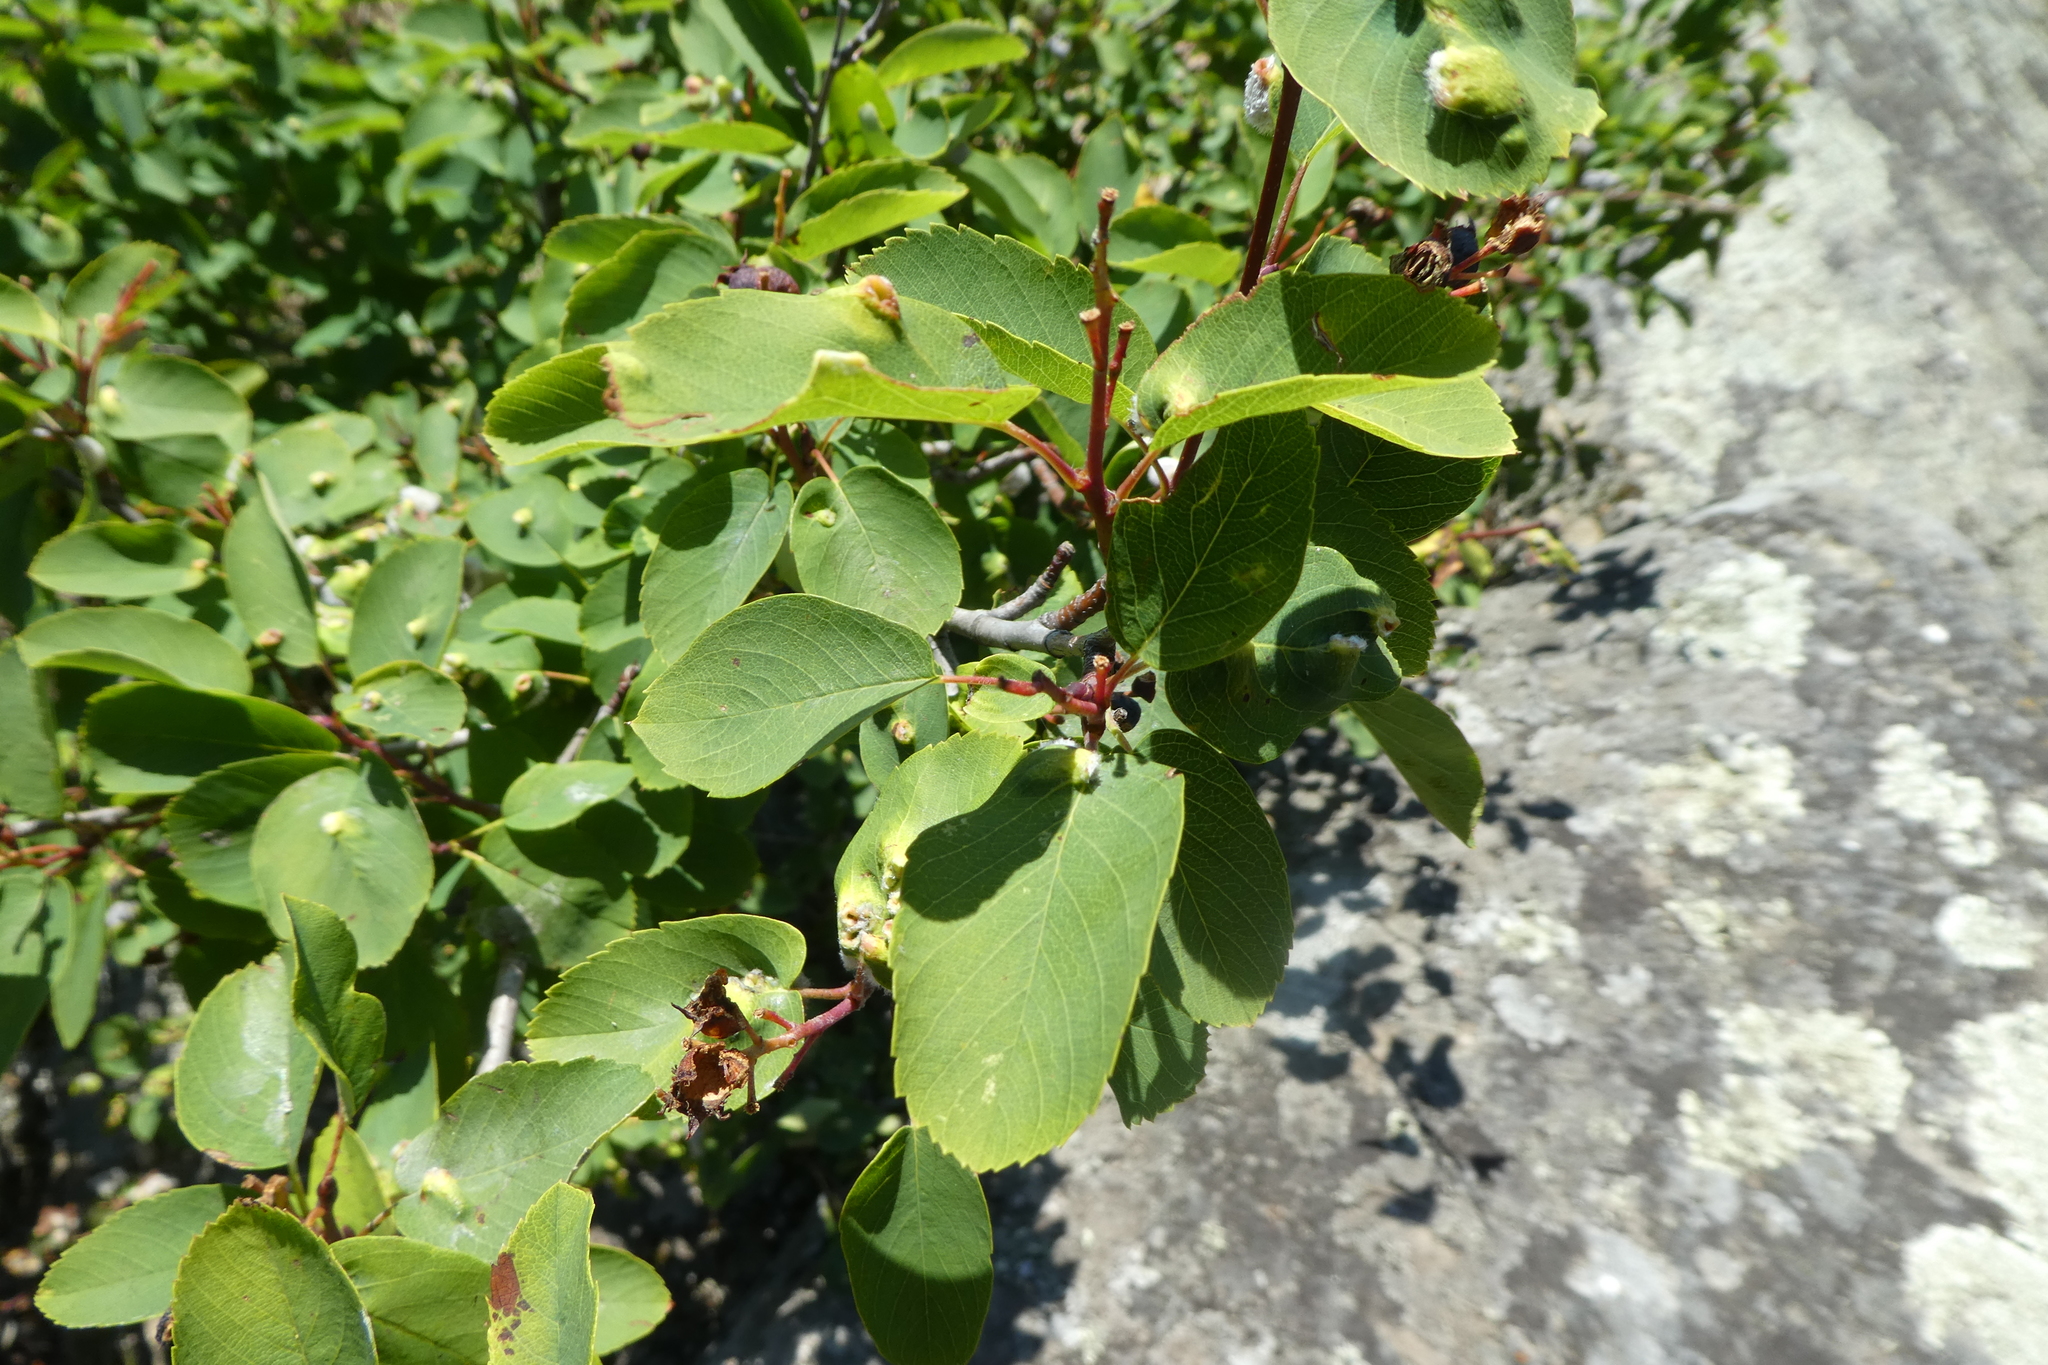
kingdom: Plantae
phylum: Tracheophyta
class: Magnoliopsida
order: Rosales
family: Rosaceae
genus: Amelanchier
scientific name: Amelanchier alnifolia
